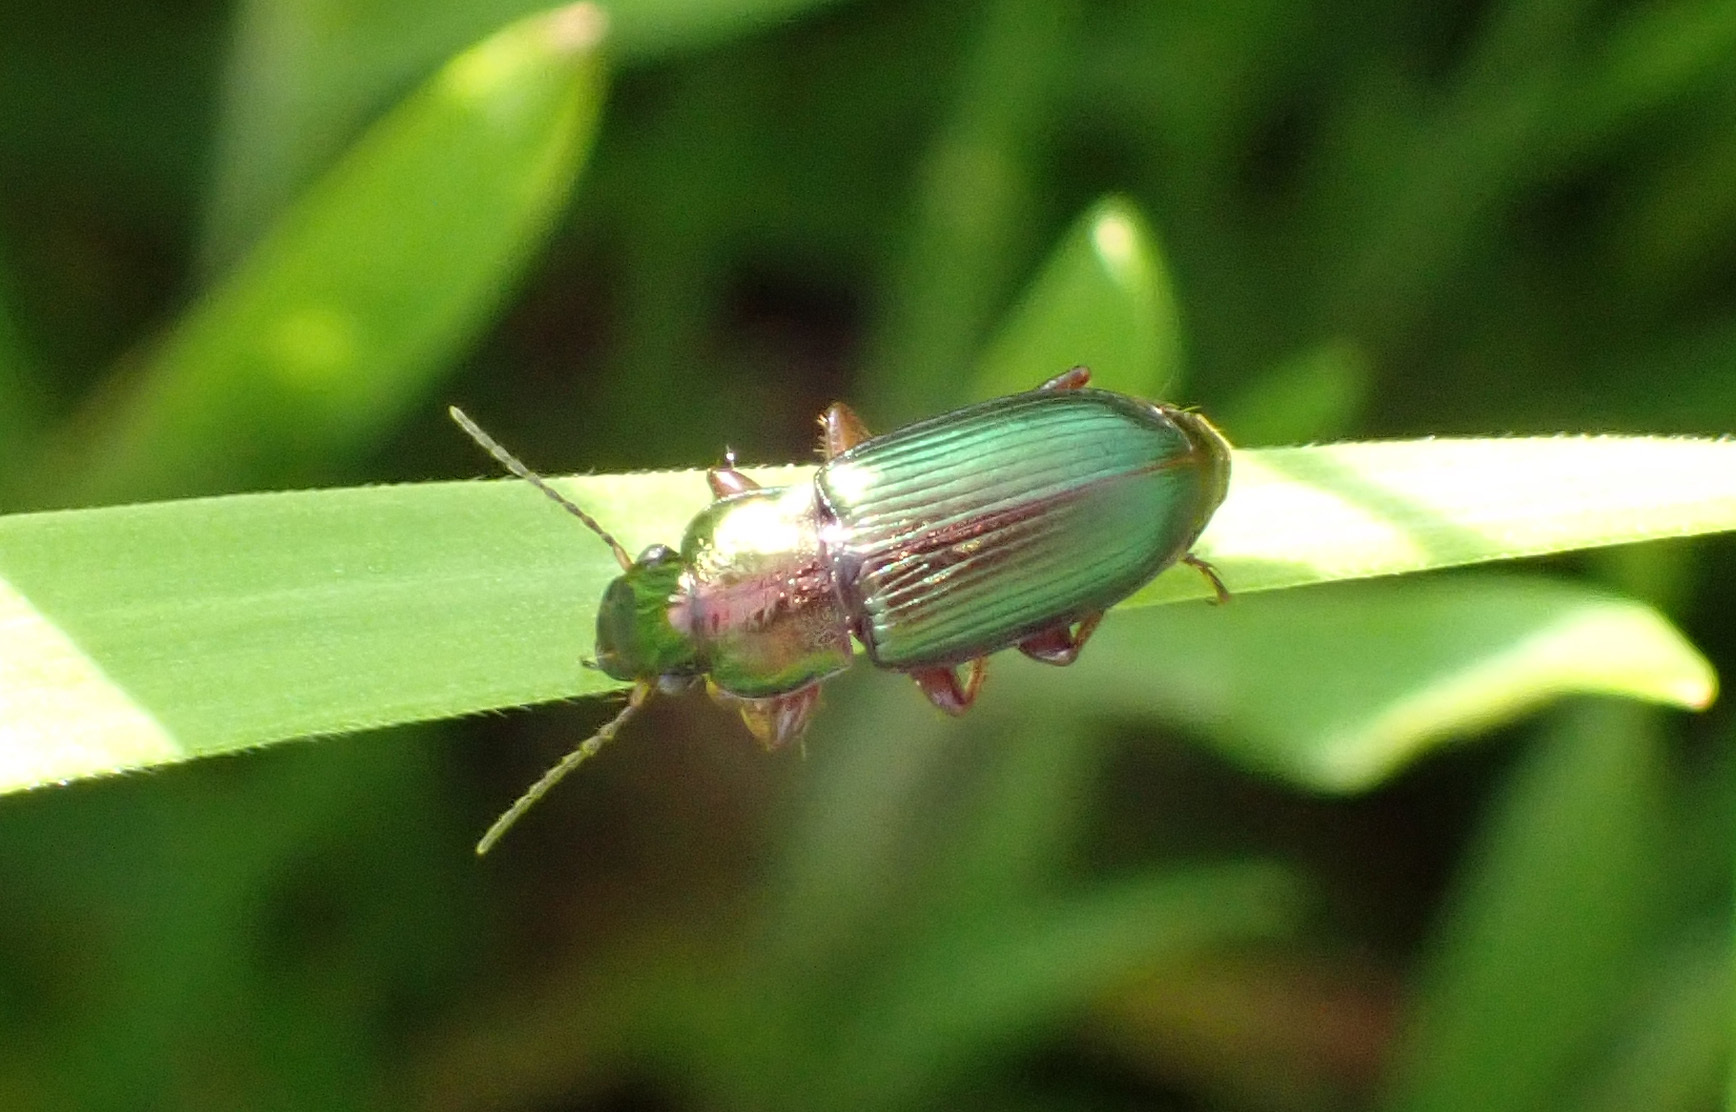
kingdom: Animalia
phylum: Arthropoda
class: Insecta
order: Coleoptera
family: Carabidae
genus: Harpalus
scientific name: Harpalus distinguendus
